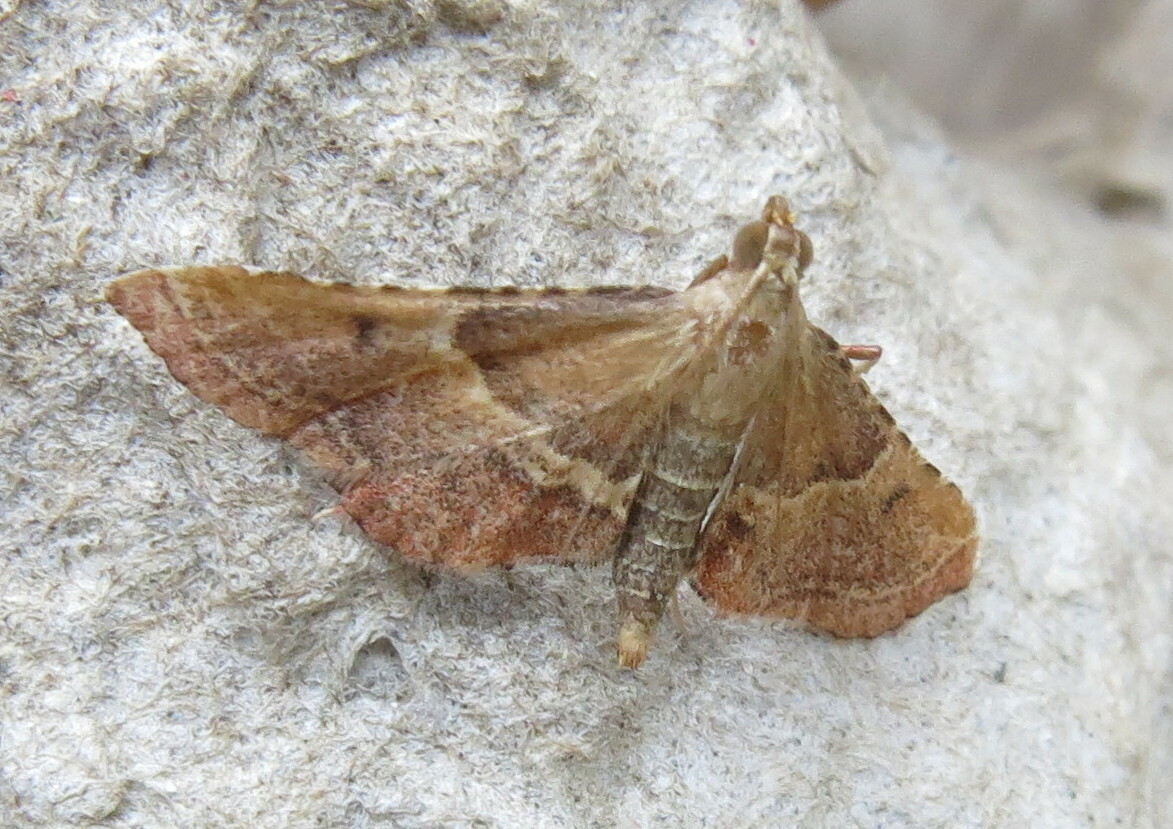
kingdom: Animalia
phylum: Arthropoda
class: Insecta
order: Lepidoptera
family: Pyralidae
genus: Endotricha
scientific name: Endotricha flammealis
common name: Rosy tabby
